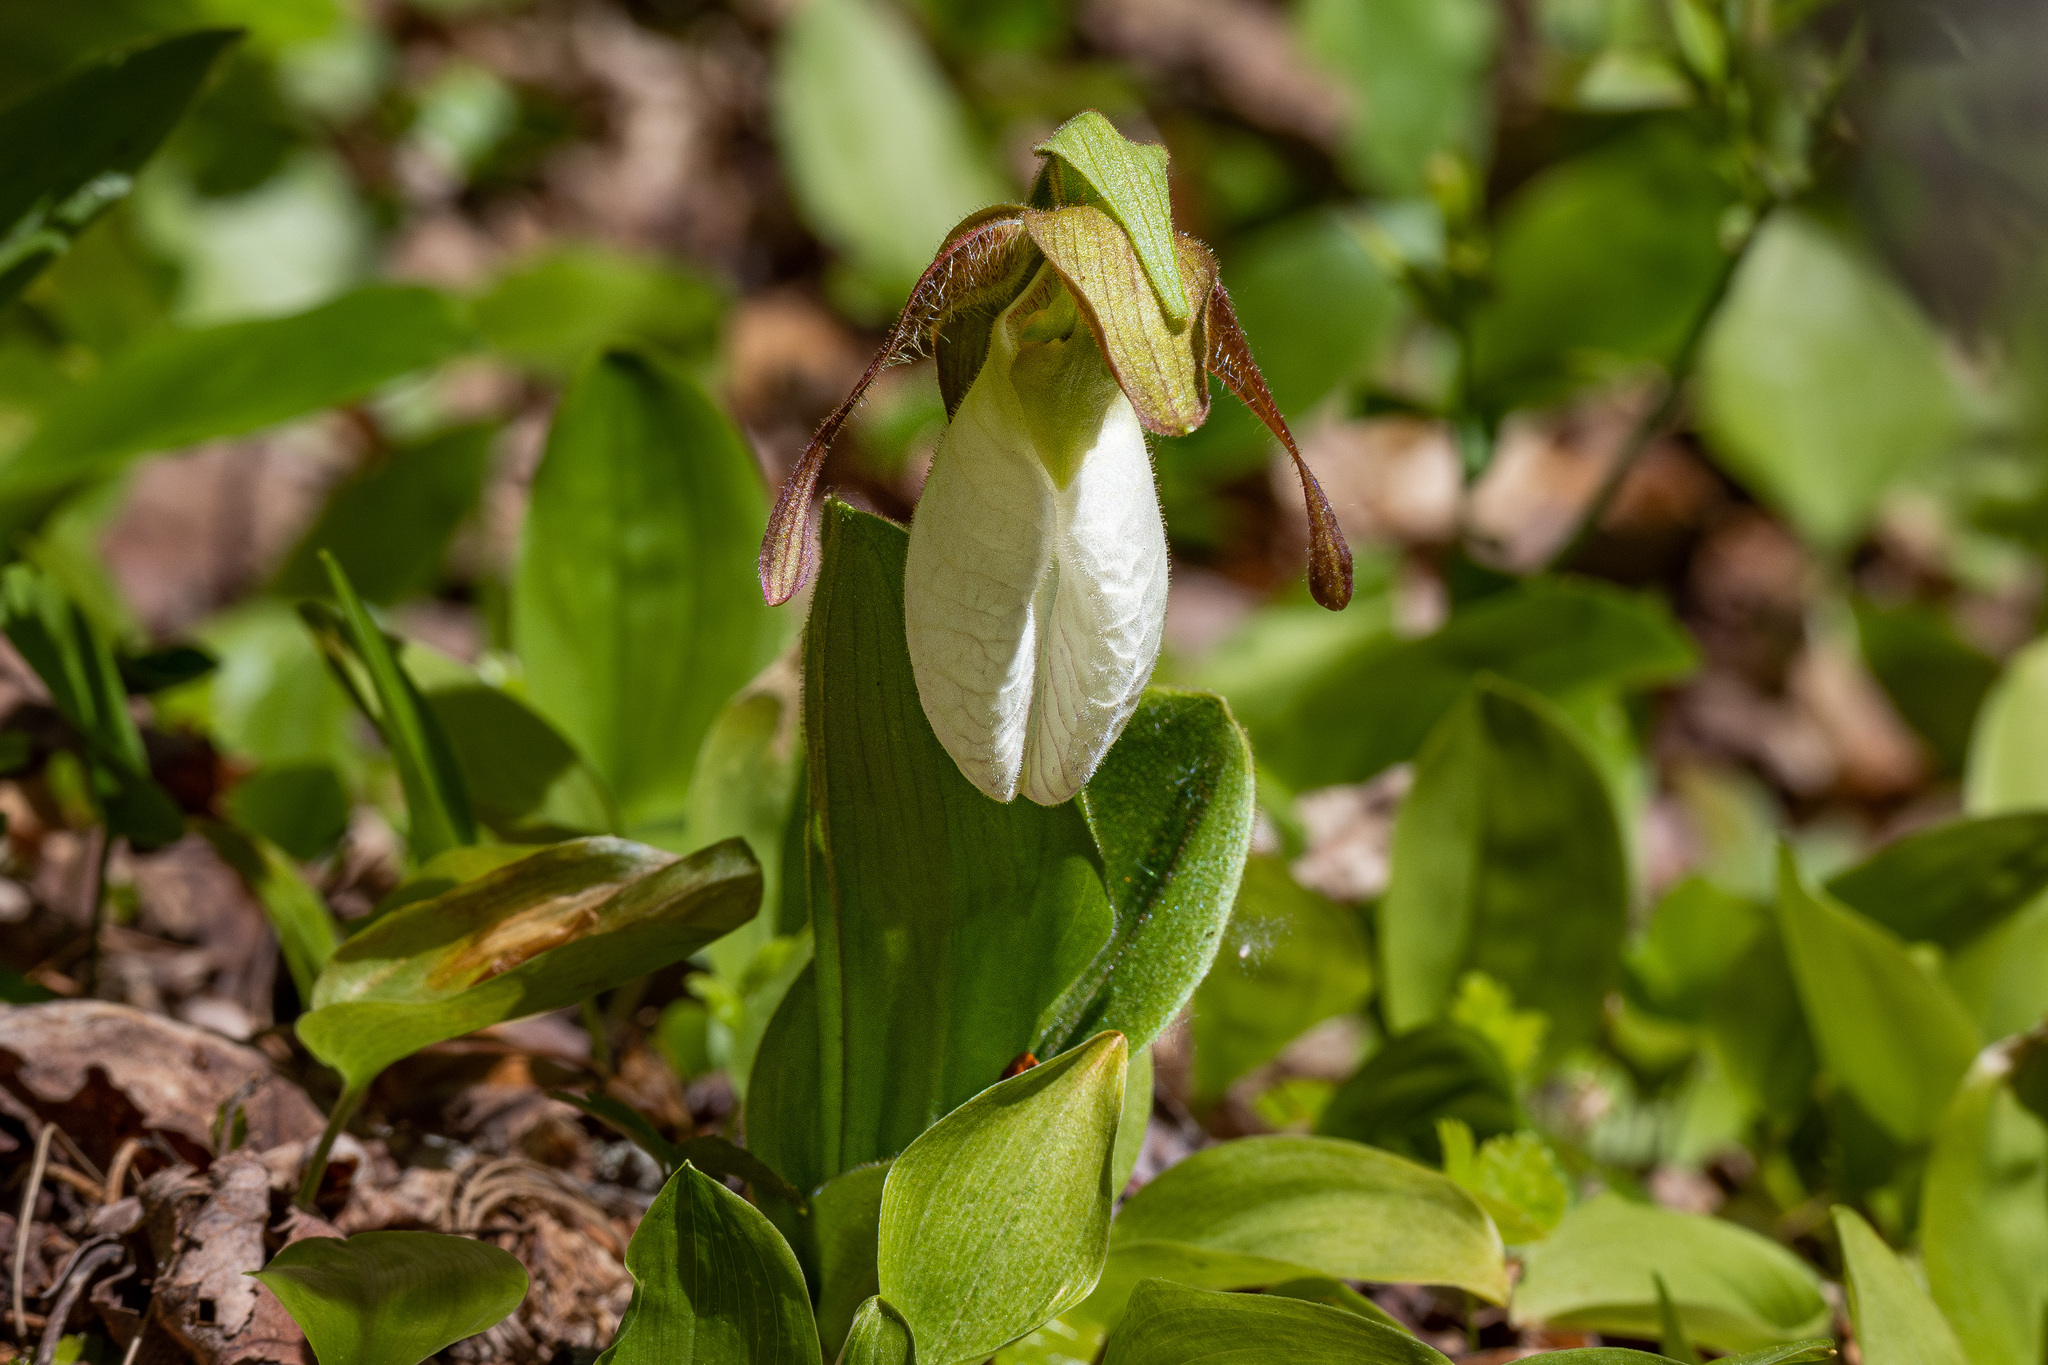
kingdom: Plantae
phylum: Tracheophyta
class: Liliopsida
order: Asparagales
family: Orchidaceae
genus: Cypripedium
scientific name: Cypripedium acaule
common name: Pink lady's-slipper
